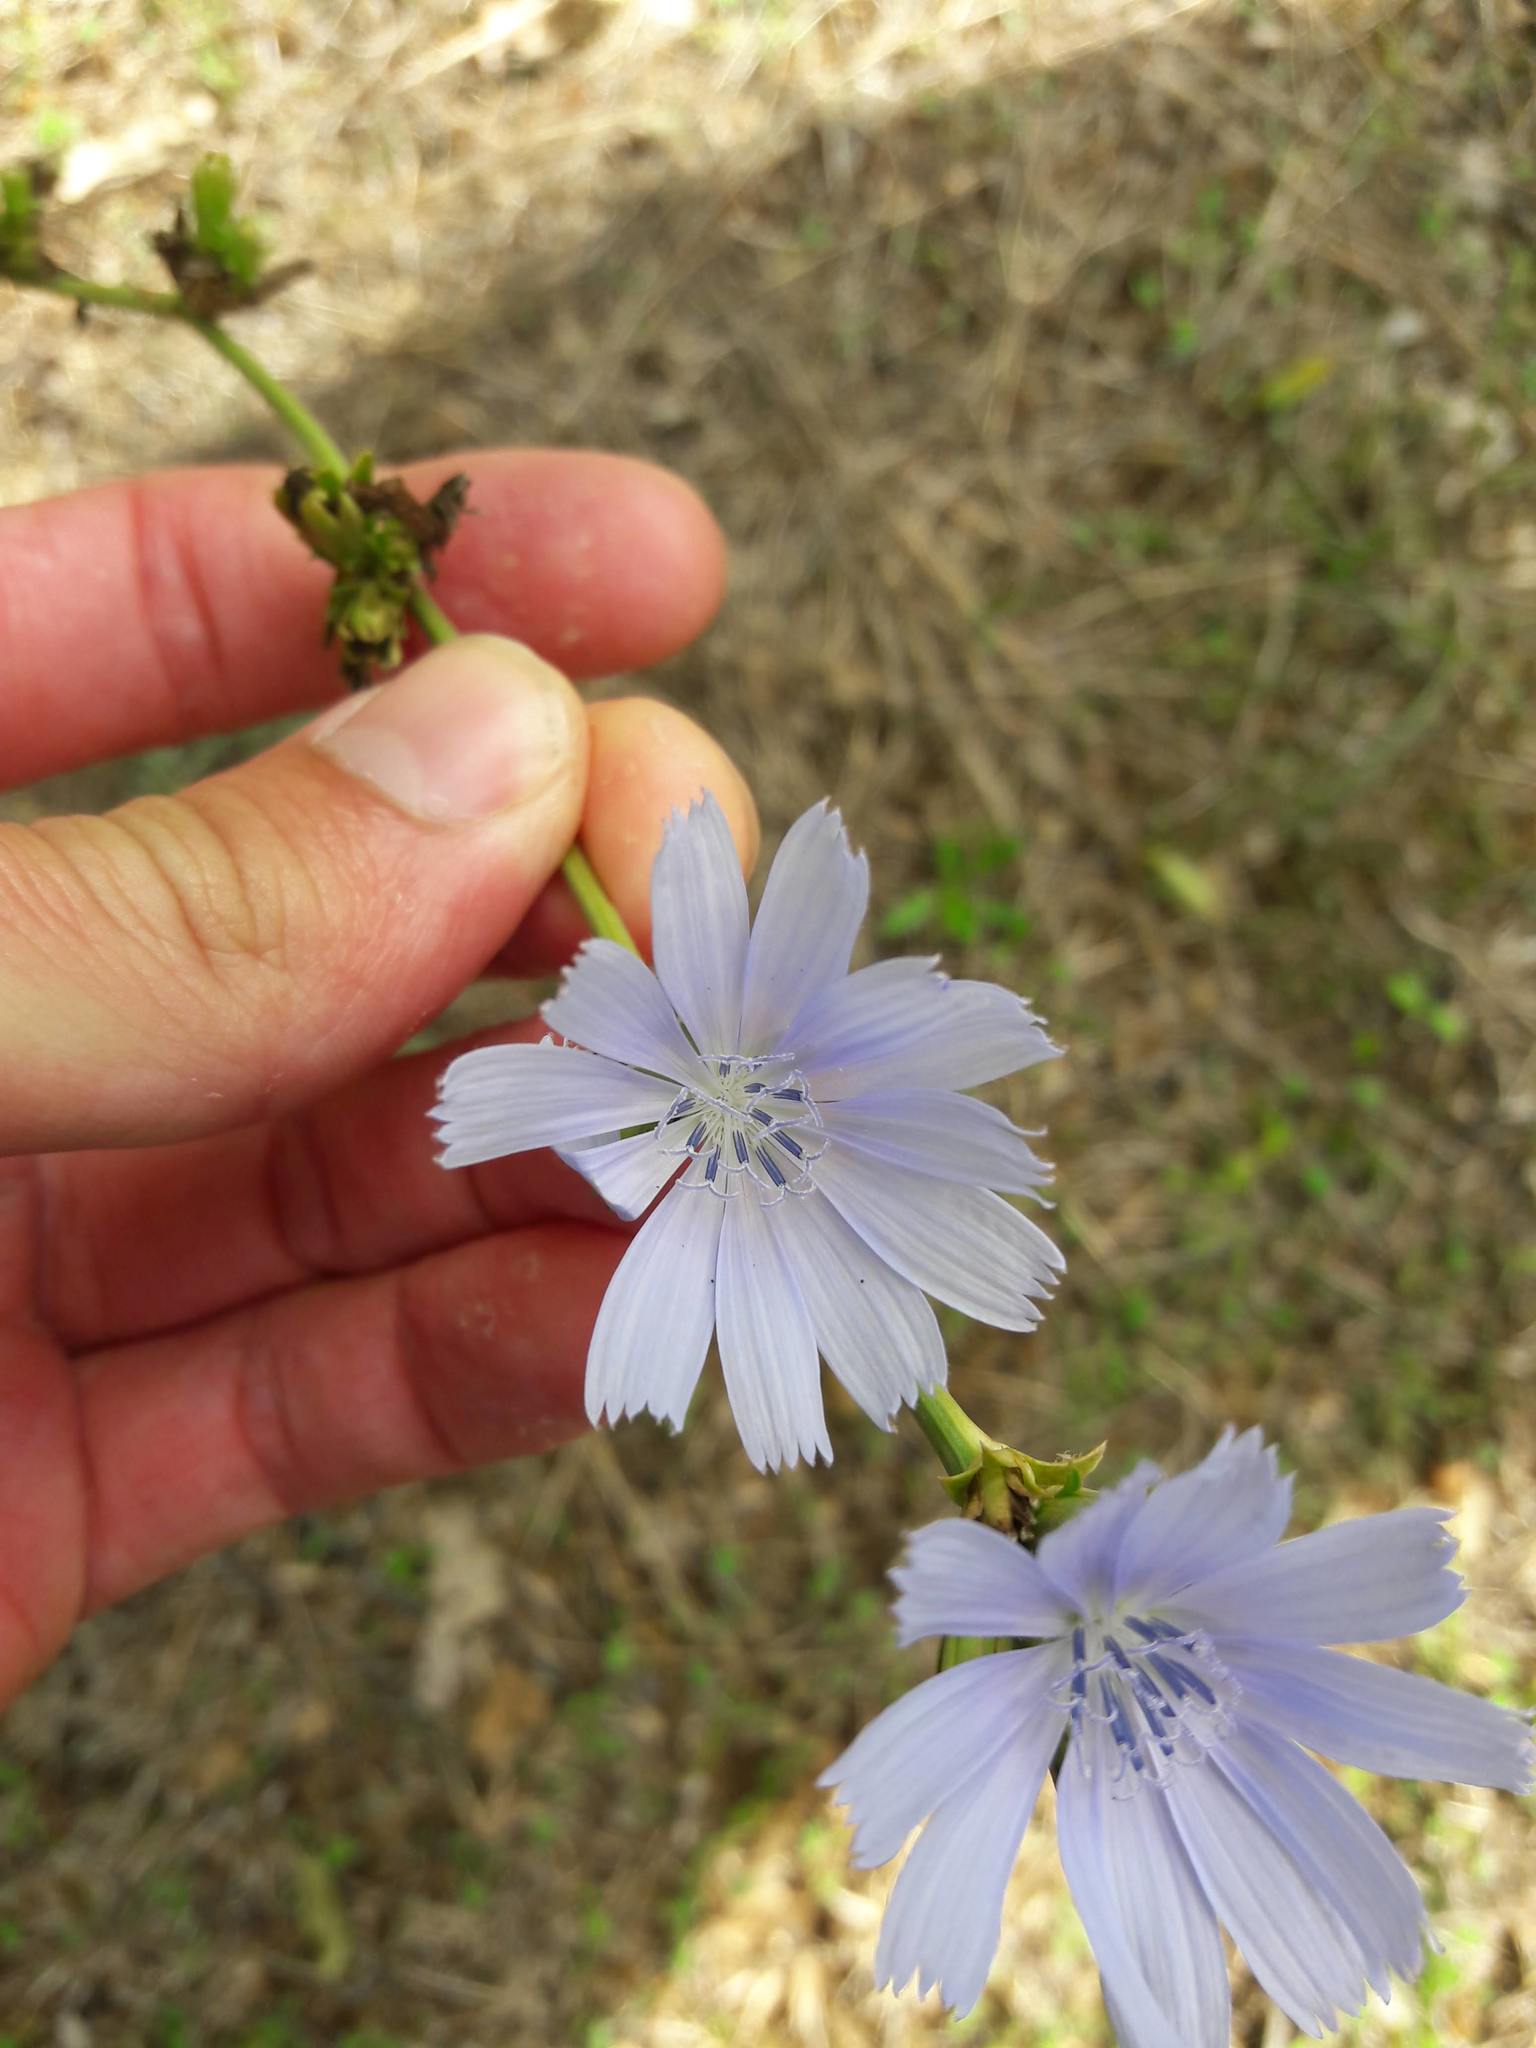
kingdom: Plantae
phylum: Tracheophyta
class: Magnoliopsida
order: Asterales
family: Asteraceae
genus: Cichorium
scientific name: Cichorium intybus
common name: Chicory
